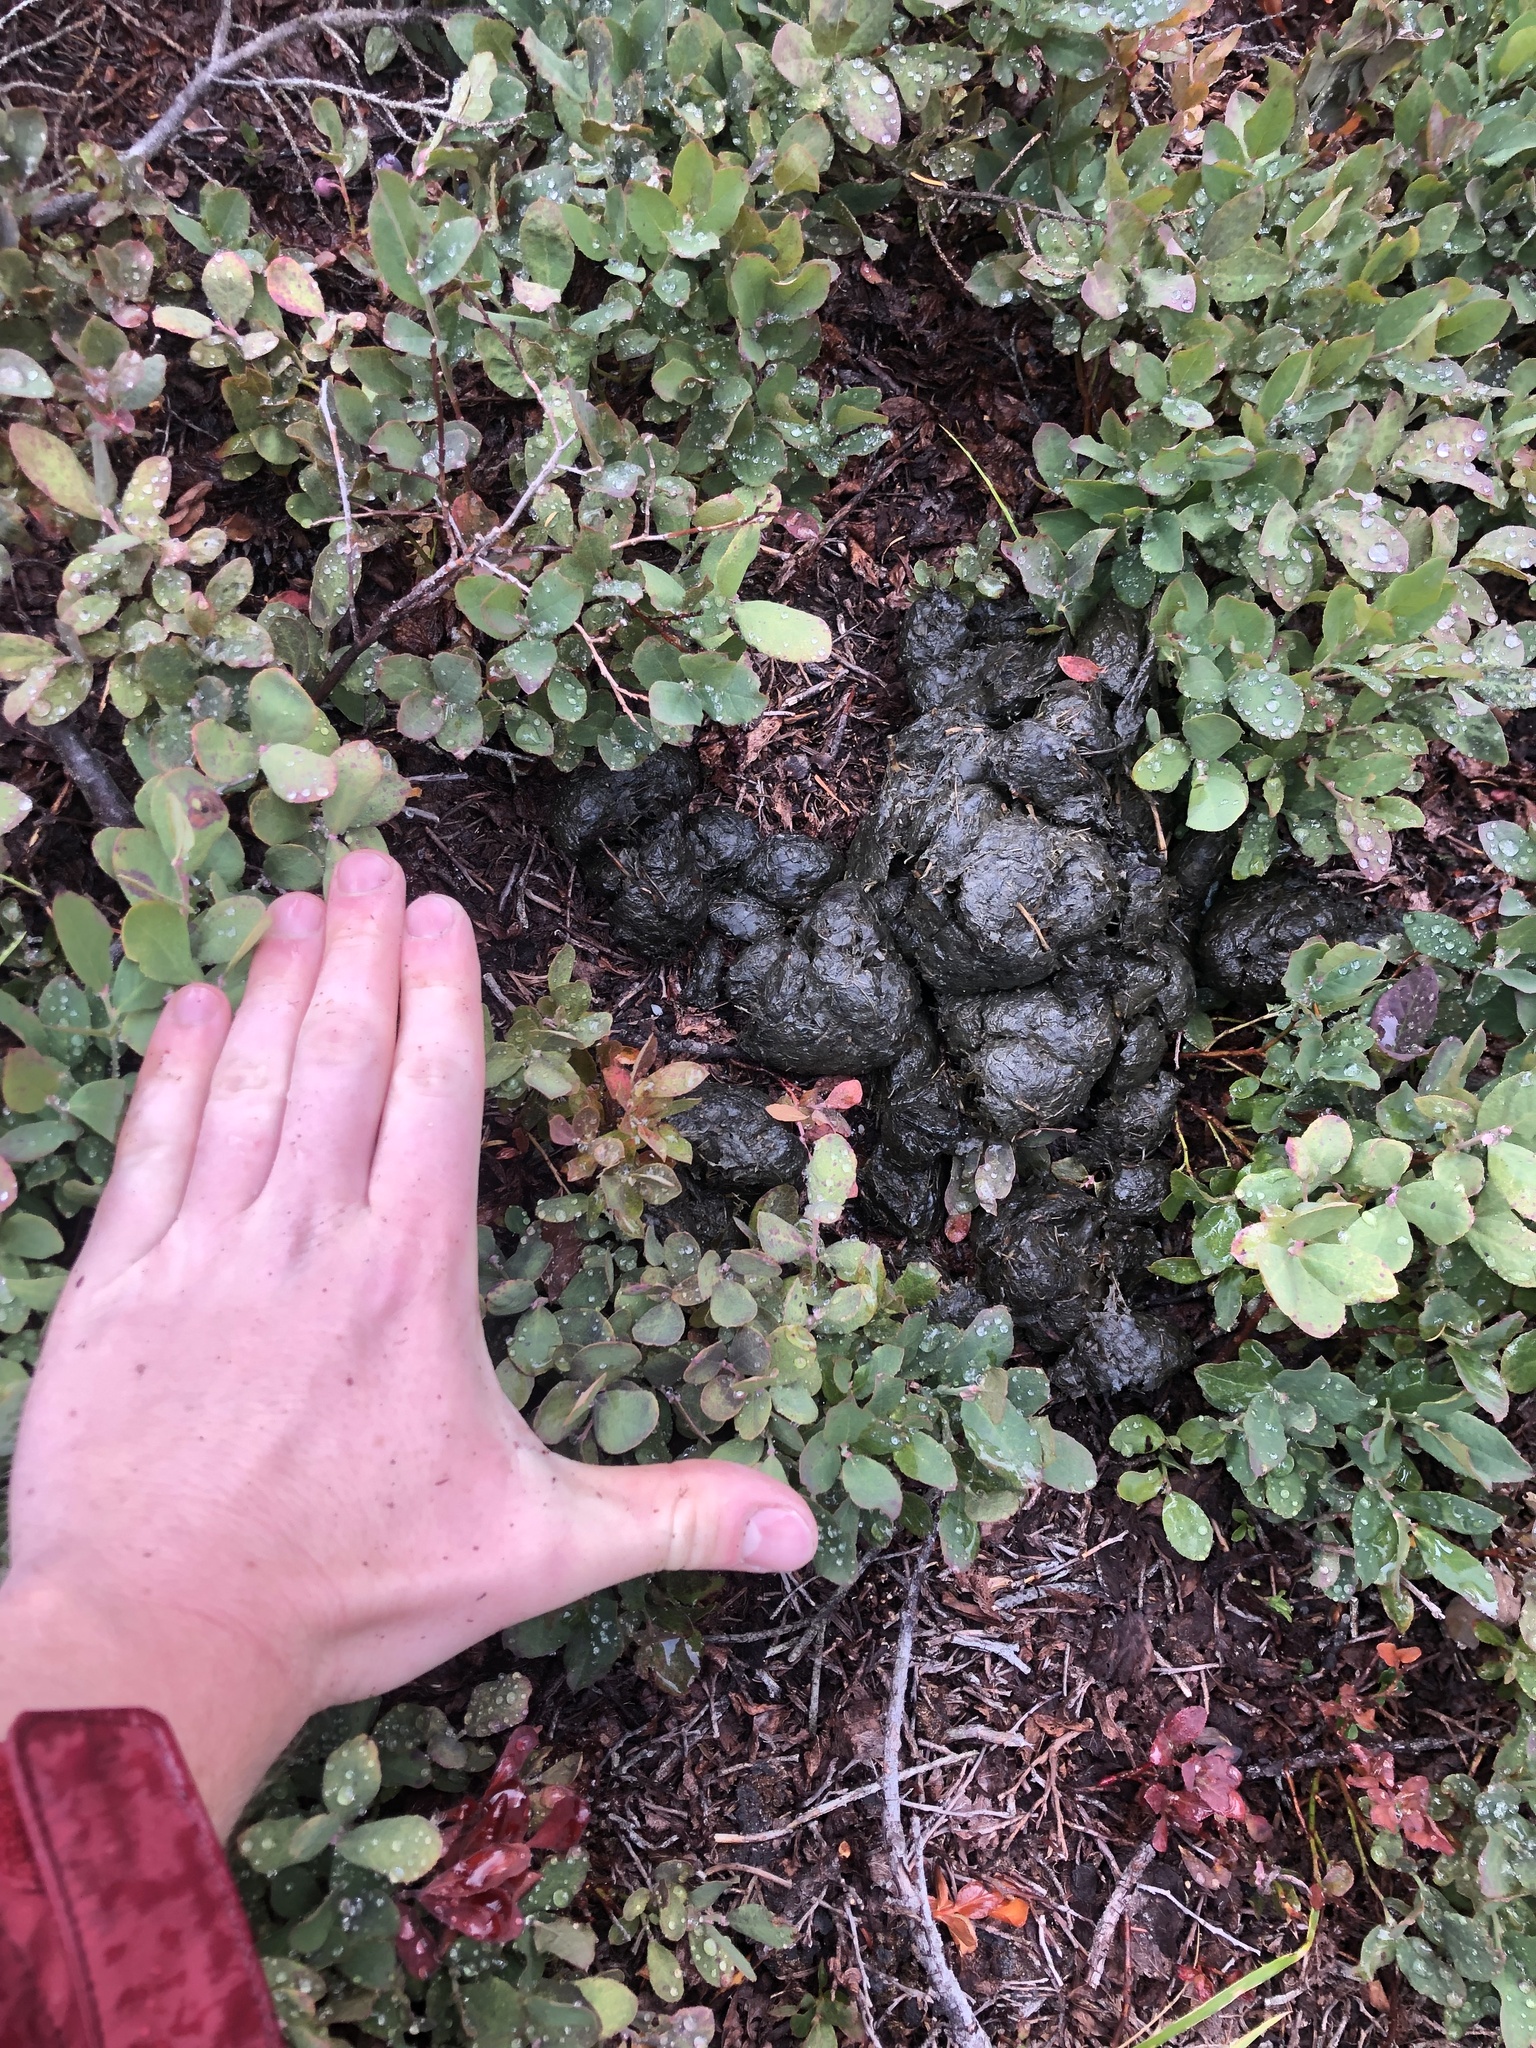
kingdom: Animalia
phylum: Chordata
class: Mammalia
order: Carnivora
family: Ursidae
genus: Ursus
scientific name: Ursus americanus
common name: American black bear
